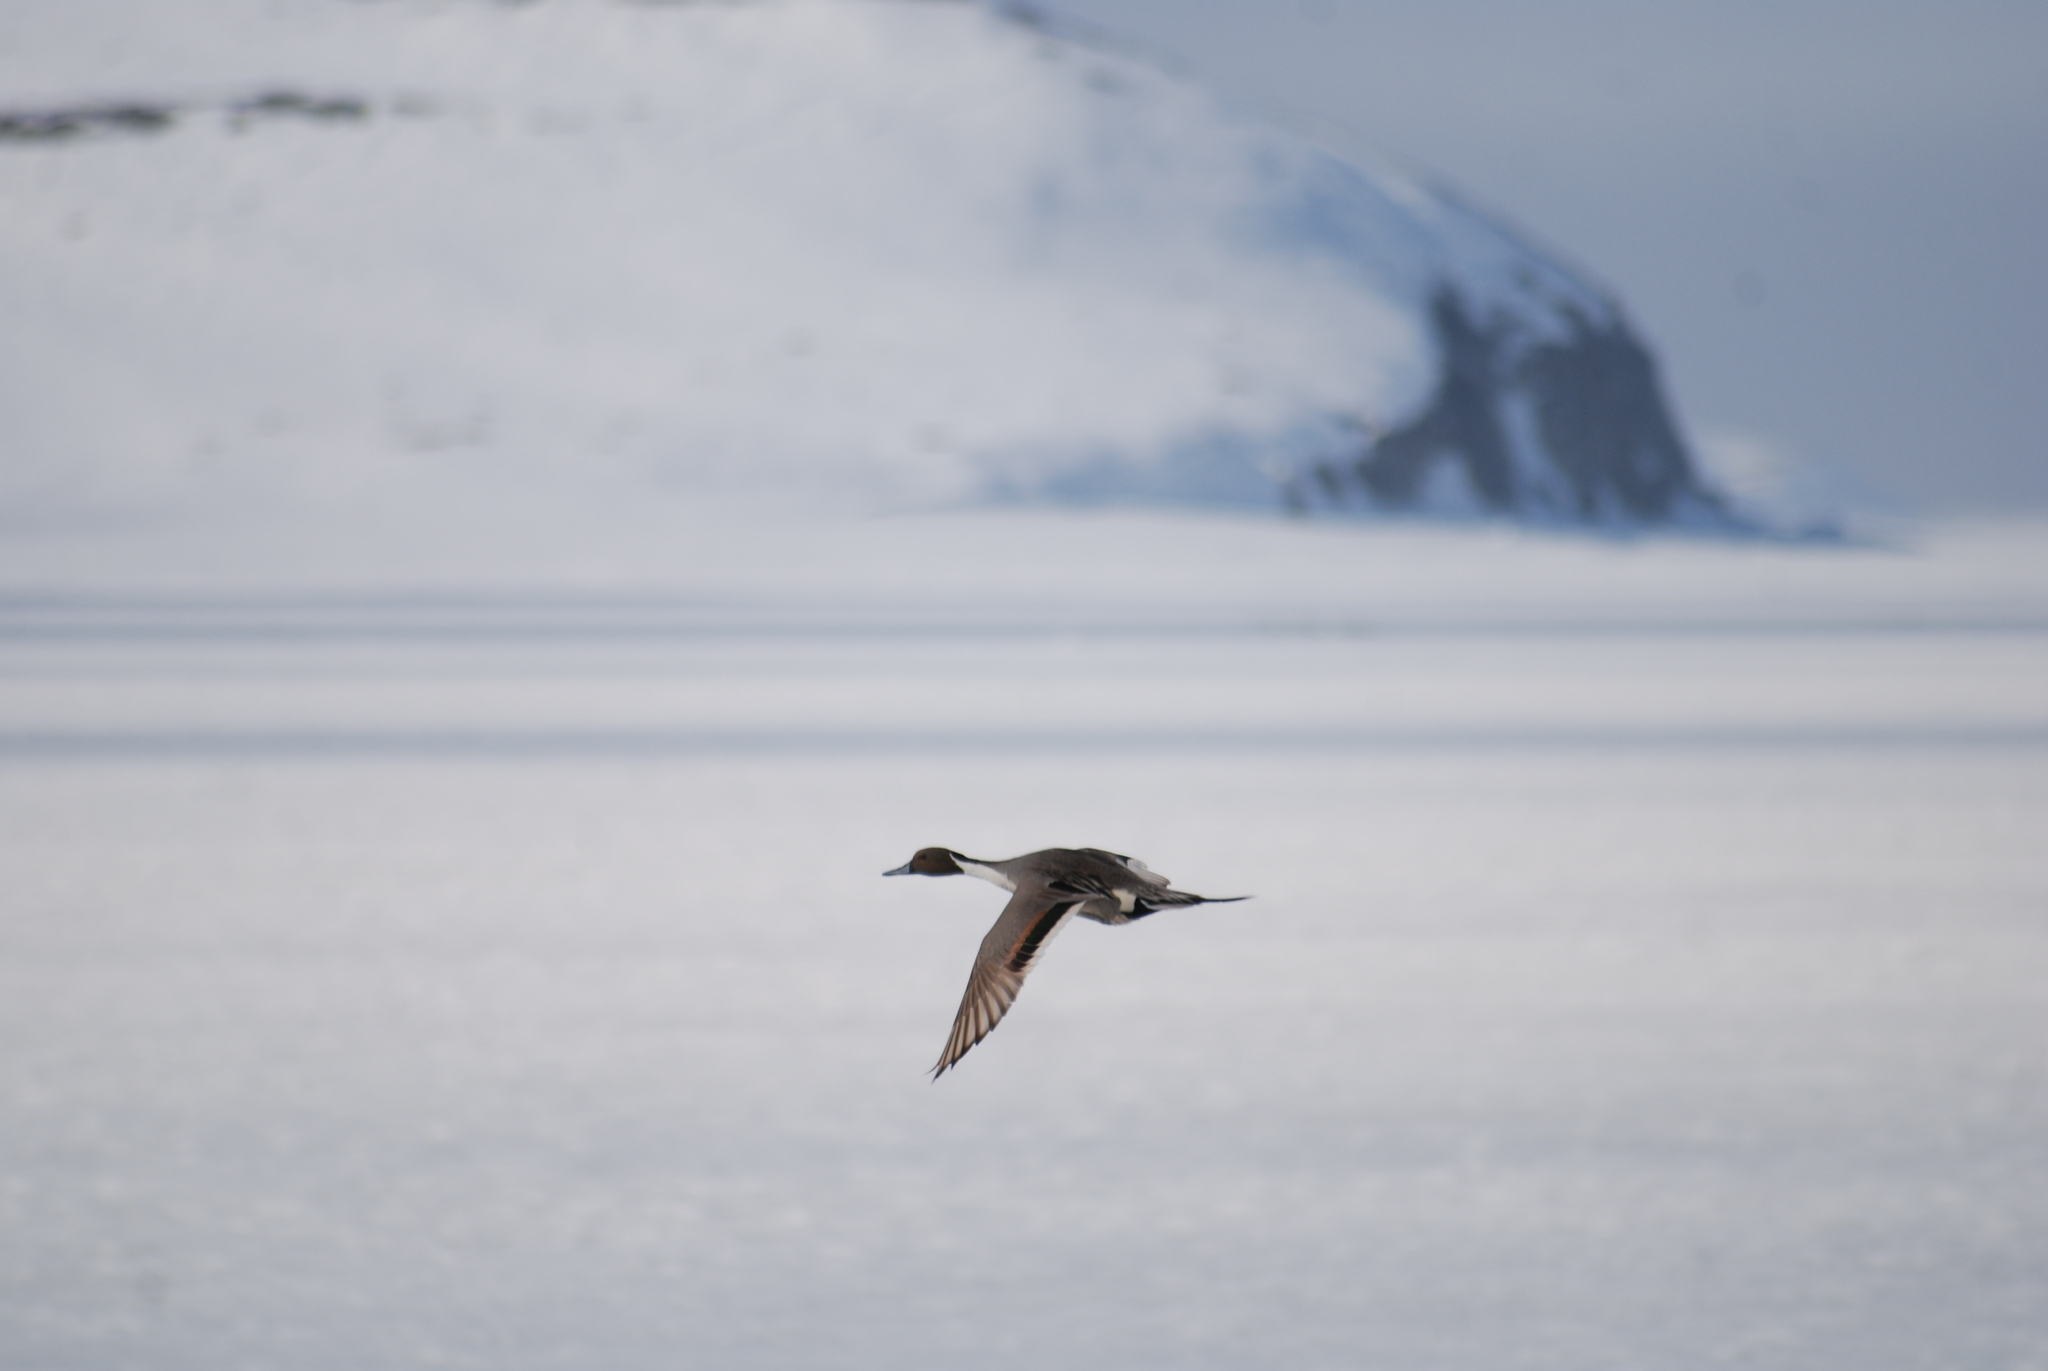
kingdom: Animalia
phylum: Chordata
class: Aves
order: Anseriformes
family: Anatidae
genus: Anas
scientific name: Anas acuta
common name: Northern pintail
